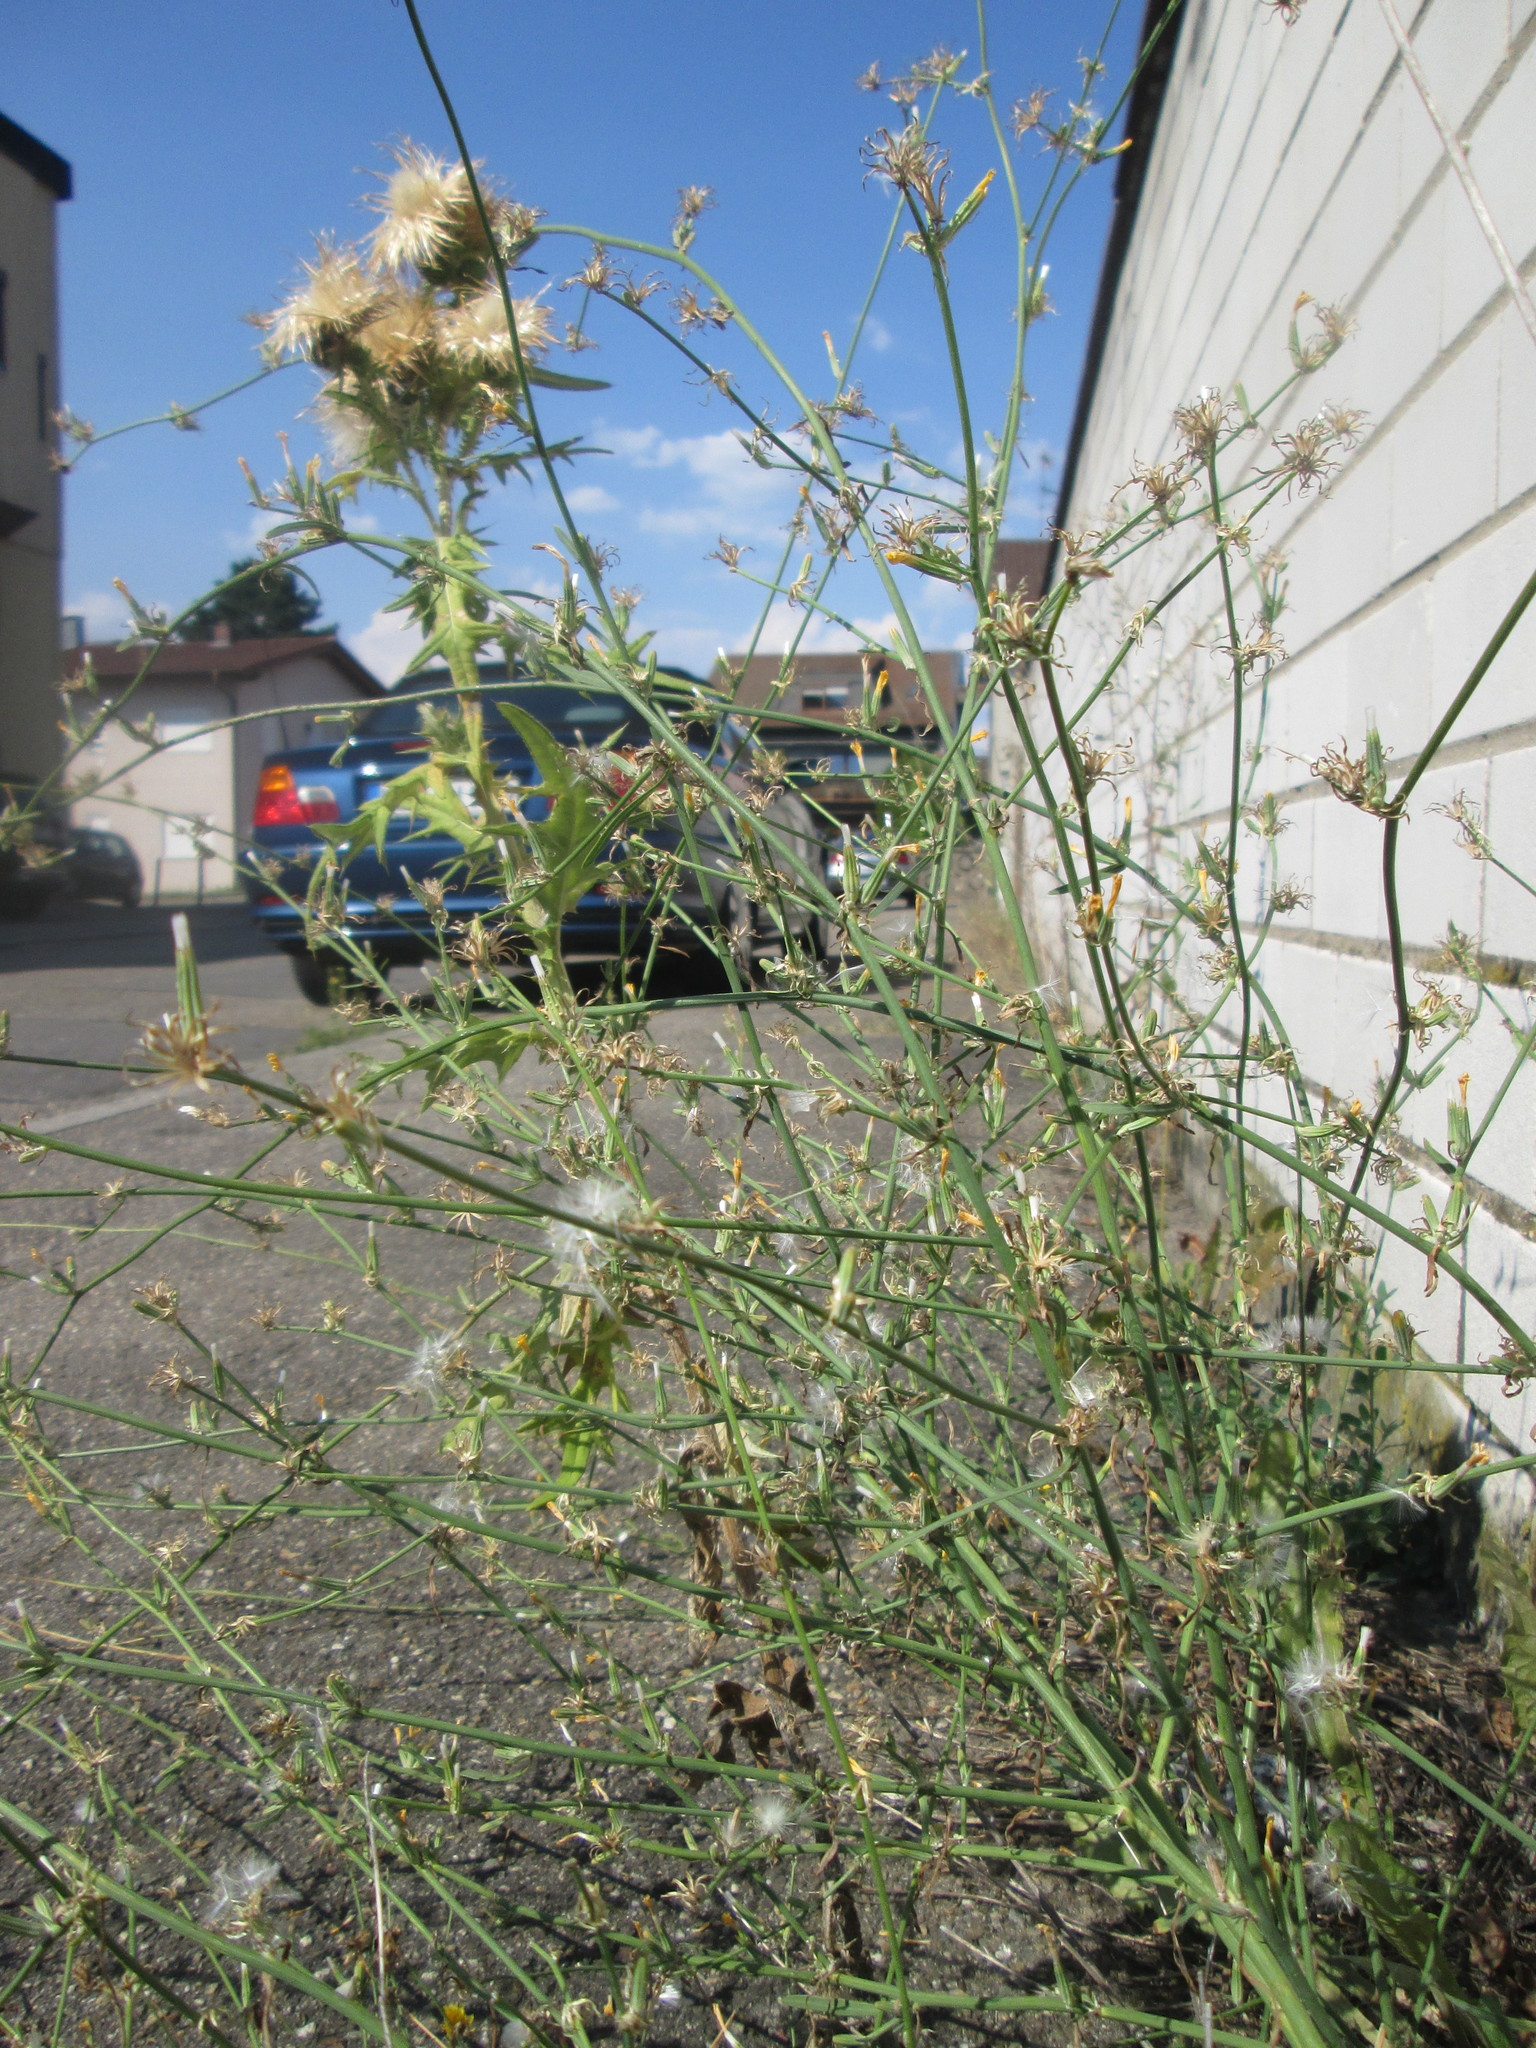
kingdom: Plantae
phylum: Tracheophyta
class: Magnoliopsida
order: Asterales
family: Asteraceae
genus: Chondrilla
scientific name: Chondrilla juncea
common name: Skeleton weed
